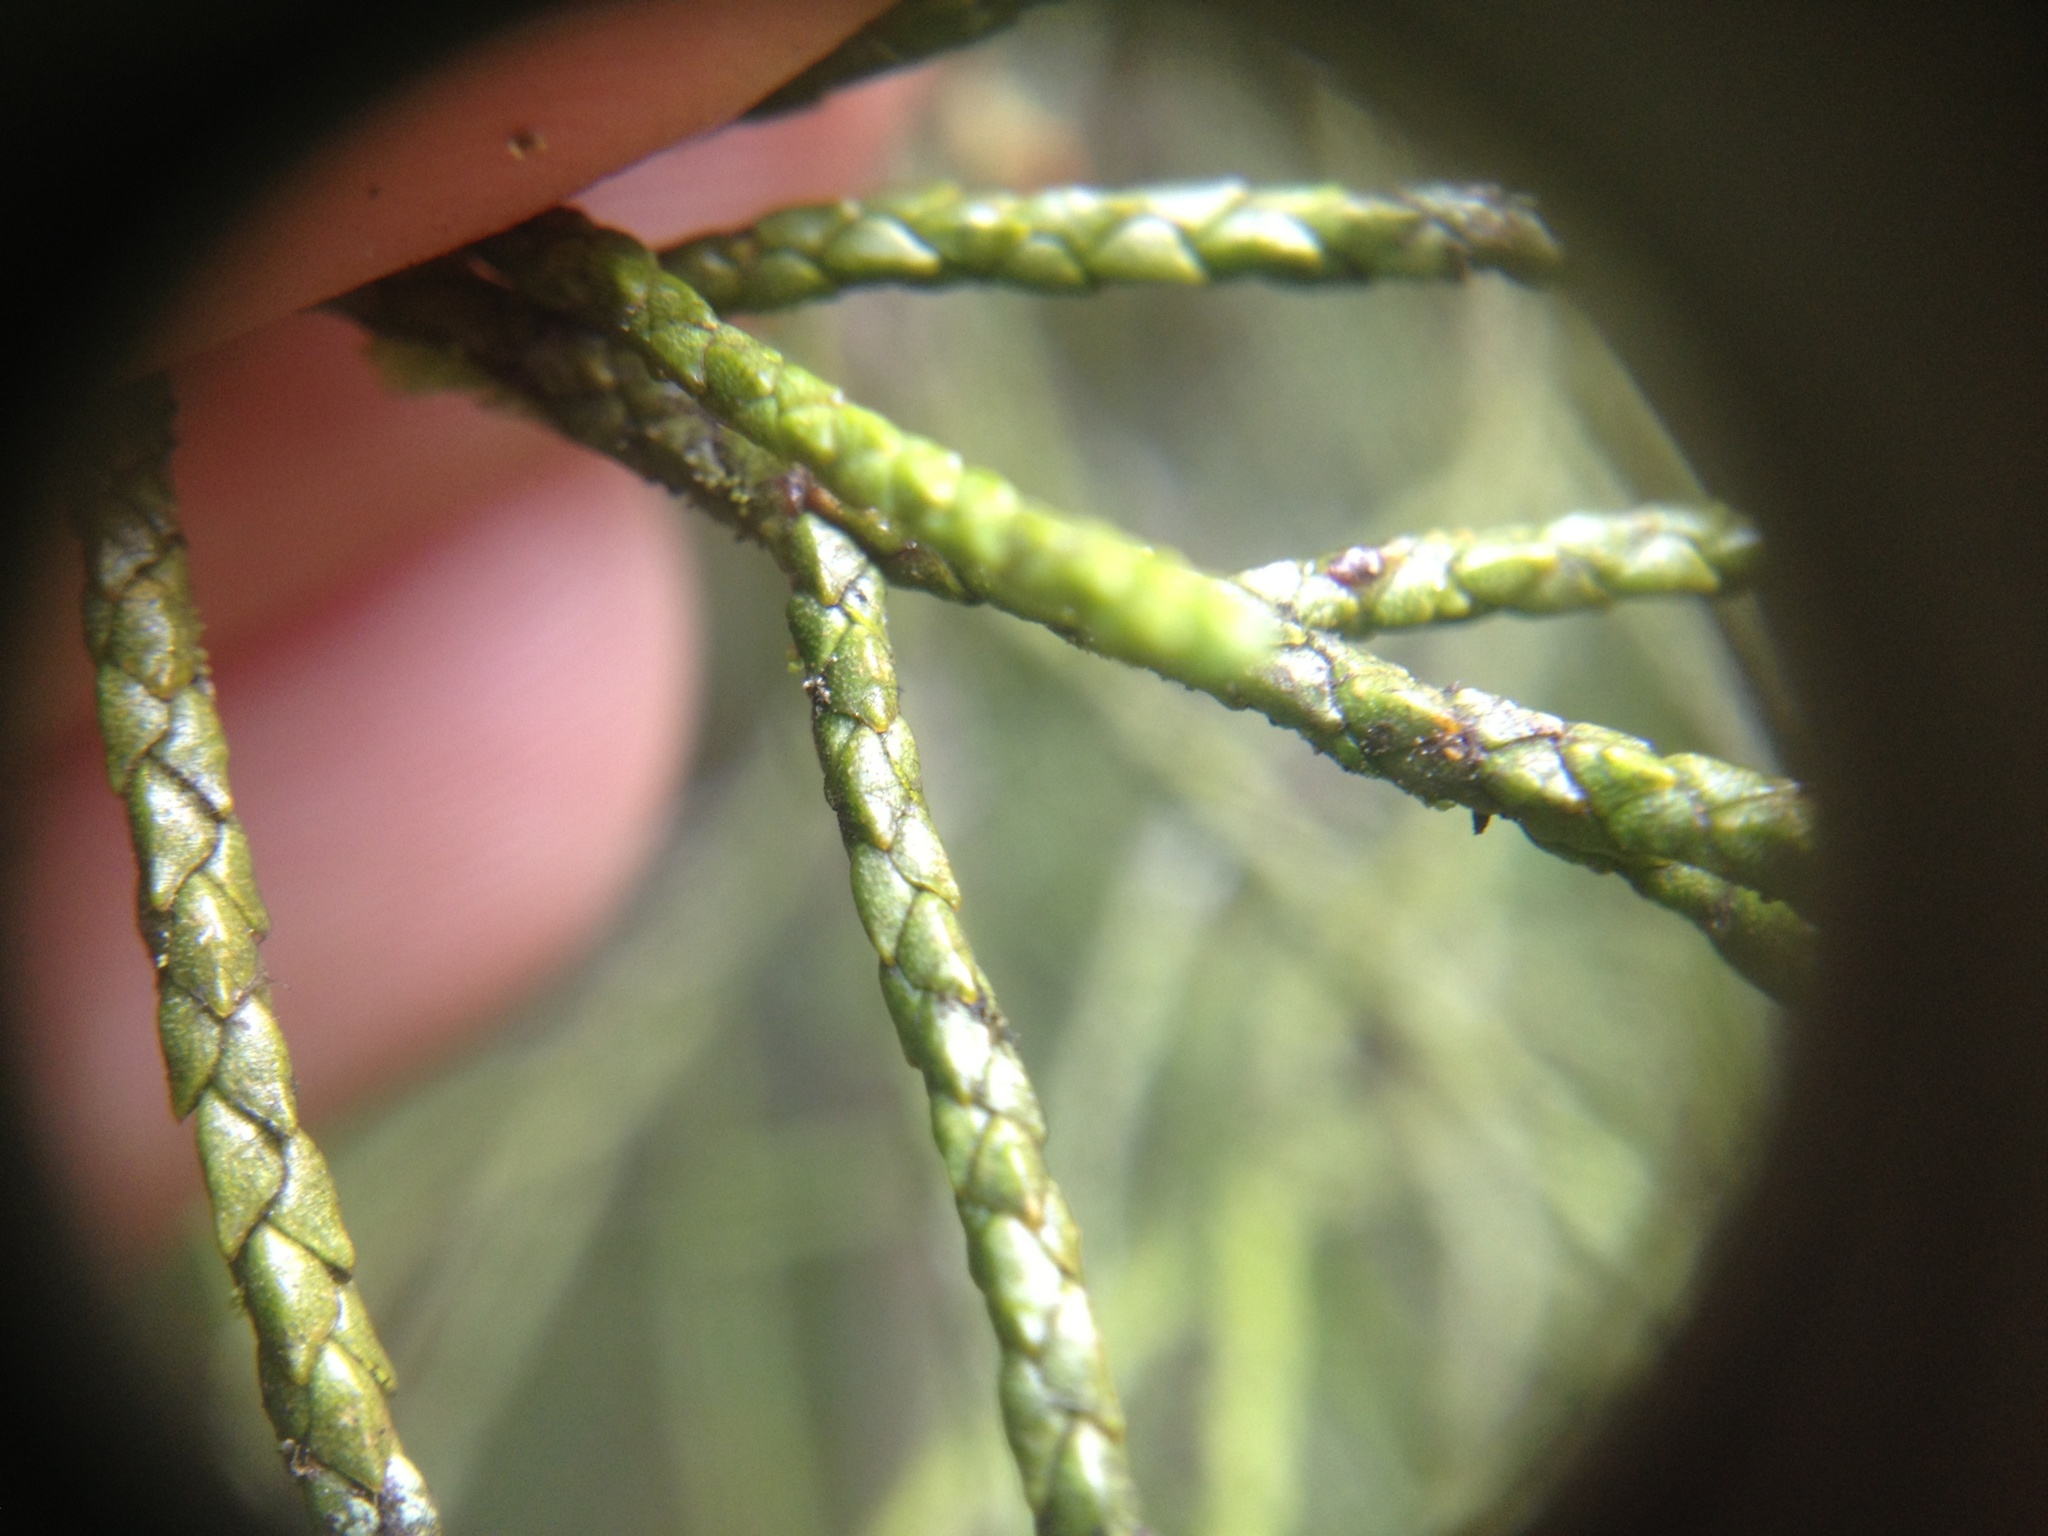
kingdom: Plantae
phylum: Tracheophyta
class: Pinopsida
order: Pinales
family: Podocarpaceae
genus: Manoao
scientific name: Manoao colensoi
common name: Silver pine
